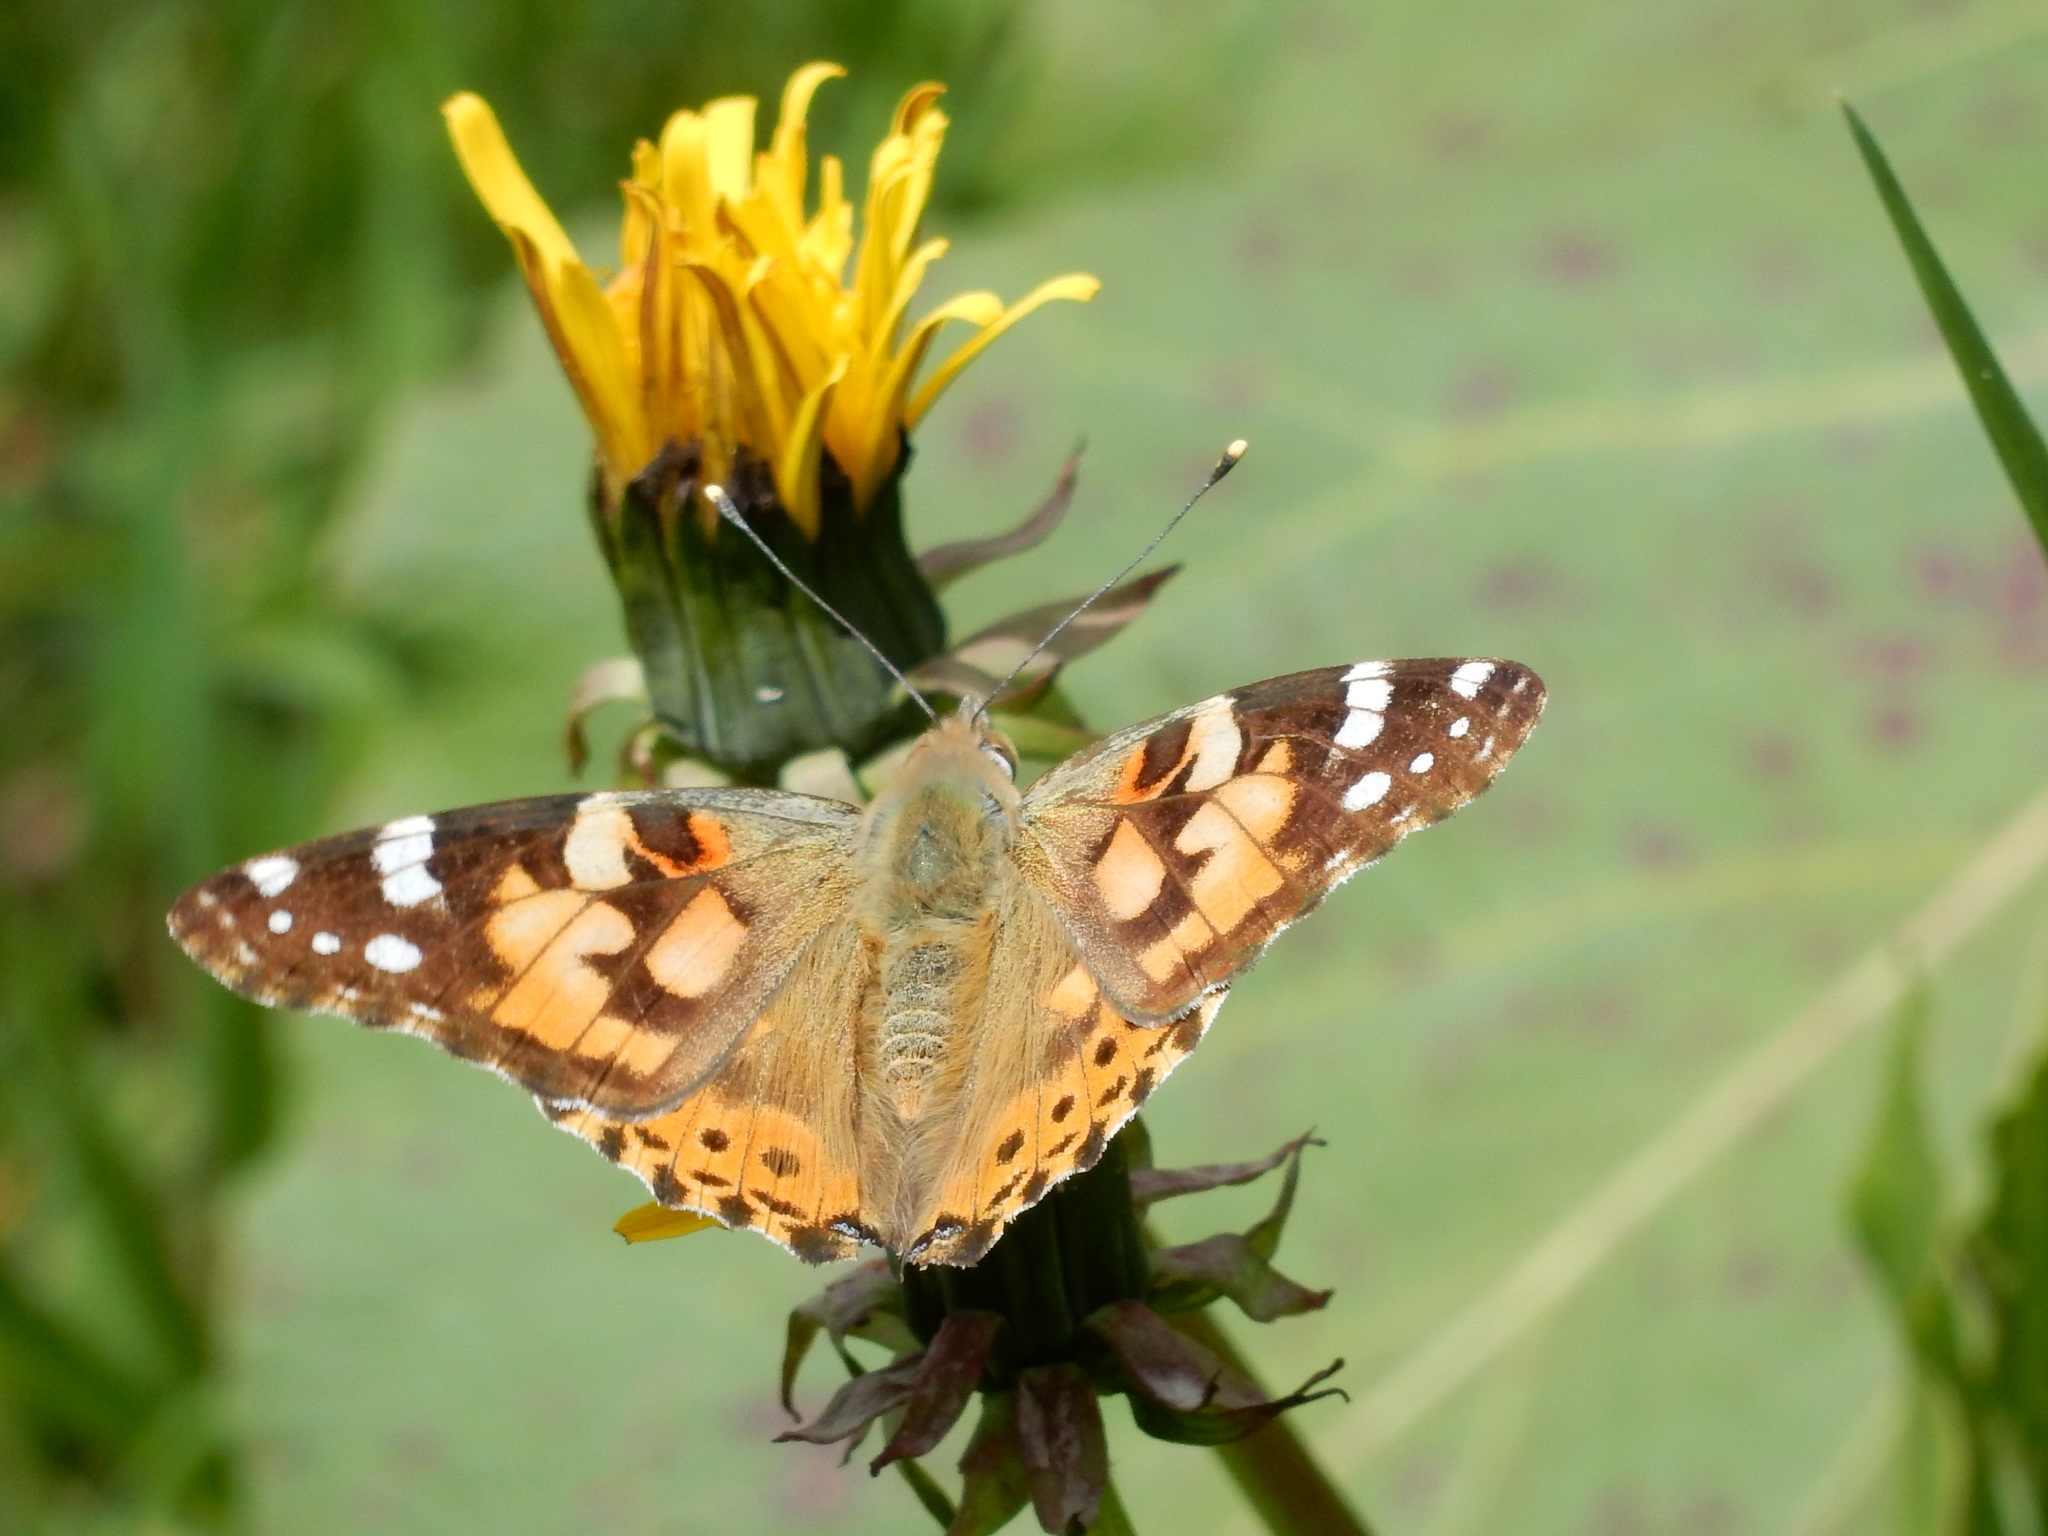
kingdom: Animalia
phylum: Arthropoda
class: Insecta
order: Lepidoptera
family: Nymphalidae
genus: Vanessa
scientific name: Vanessa cardui
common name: Painted lady
